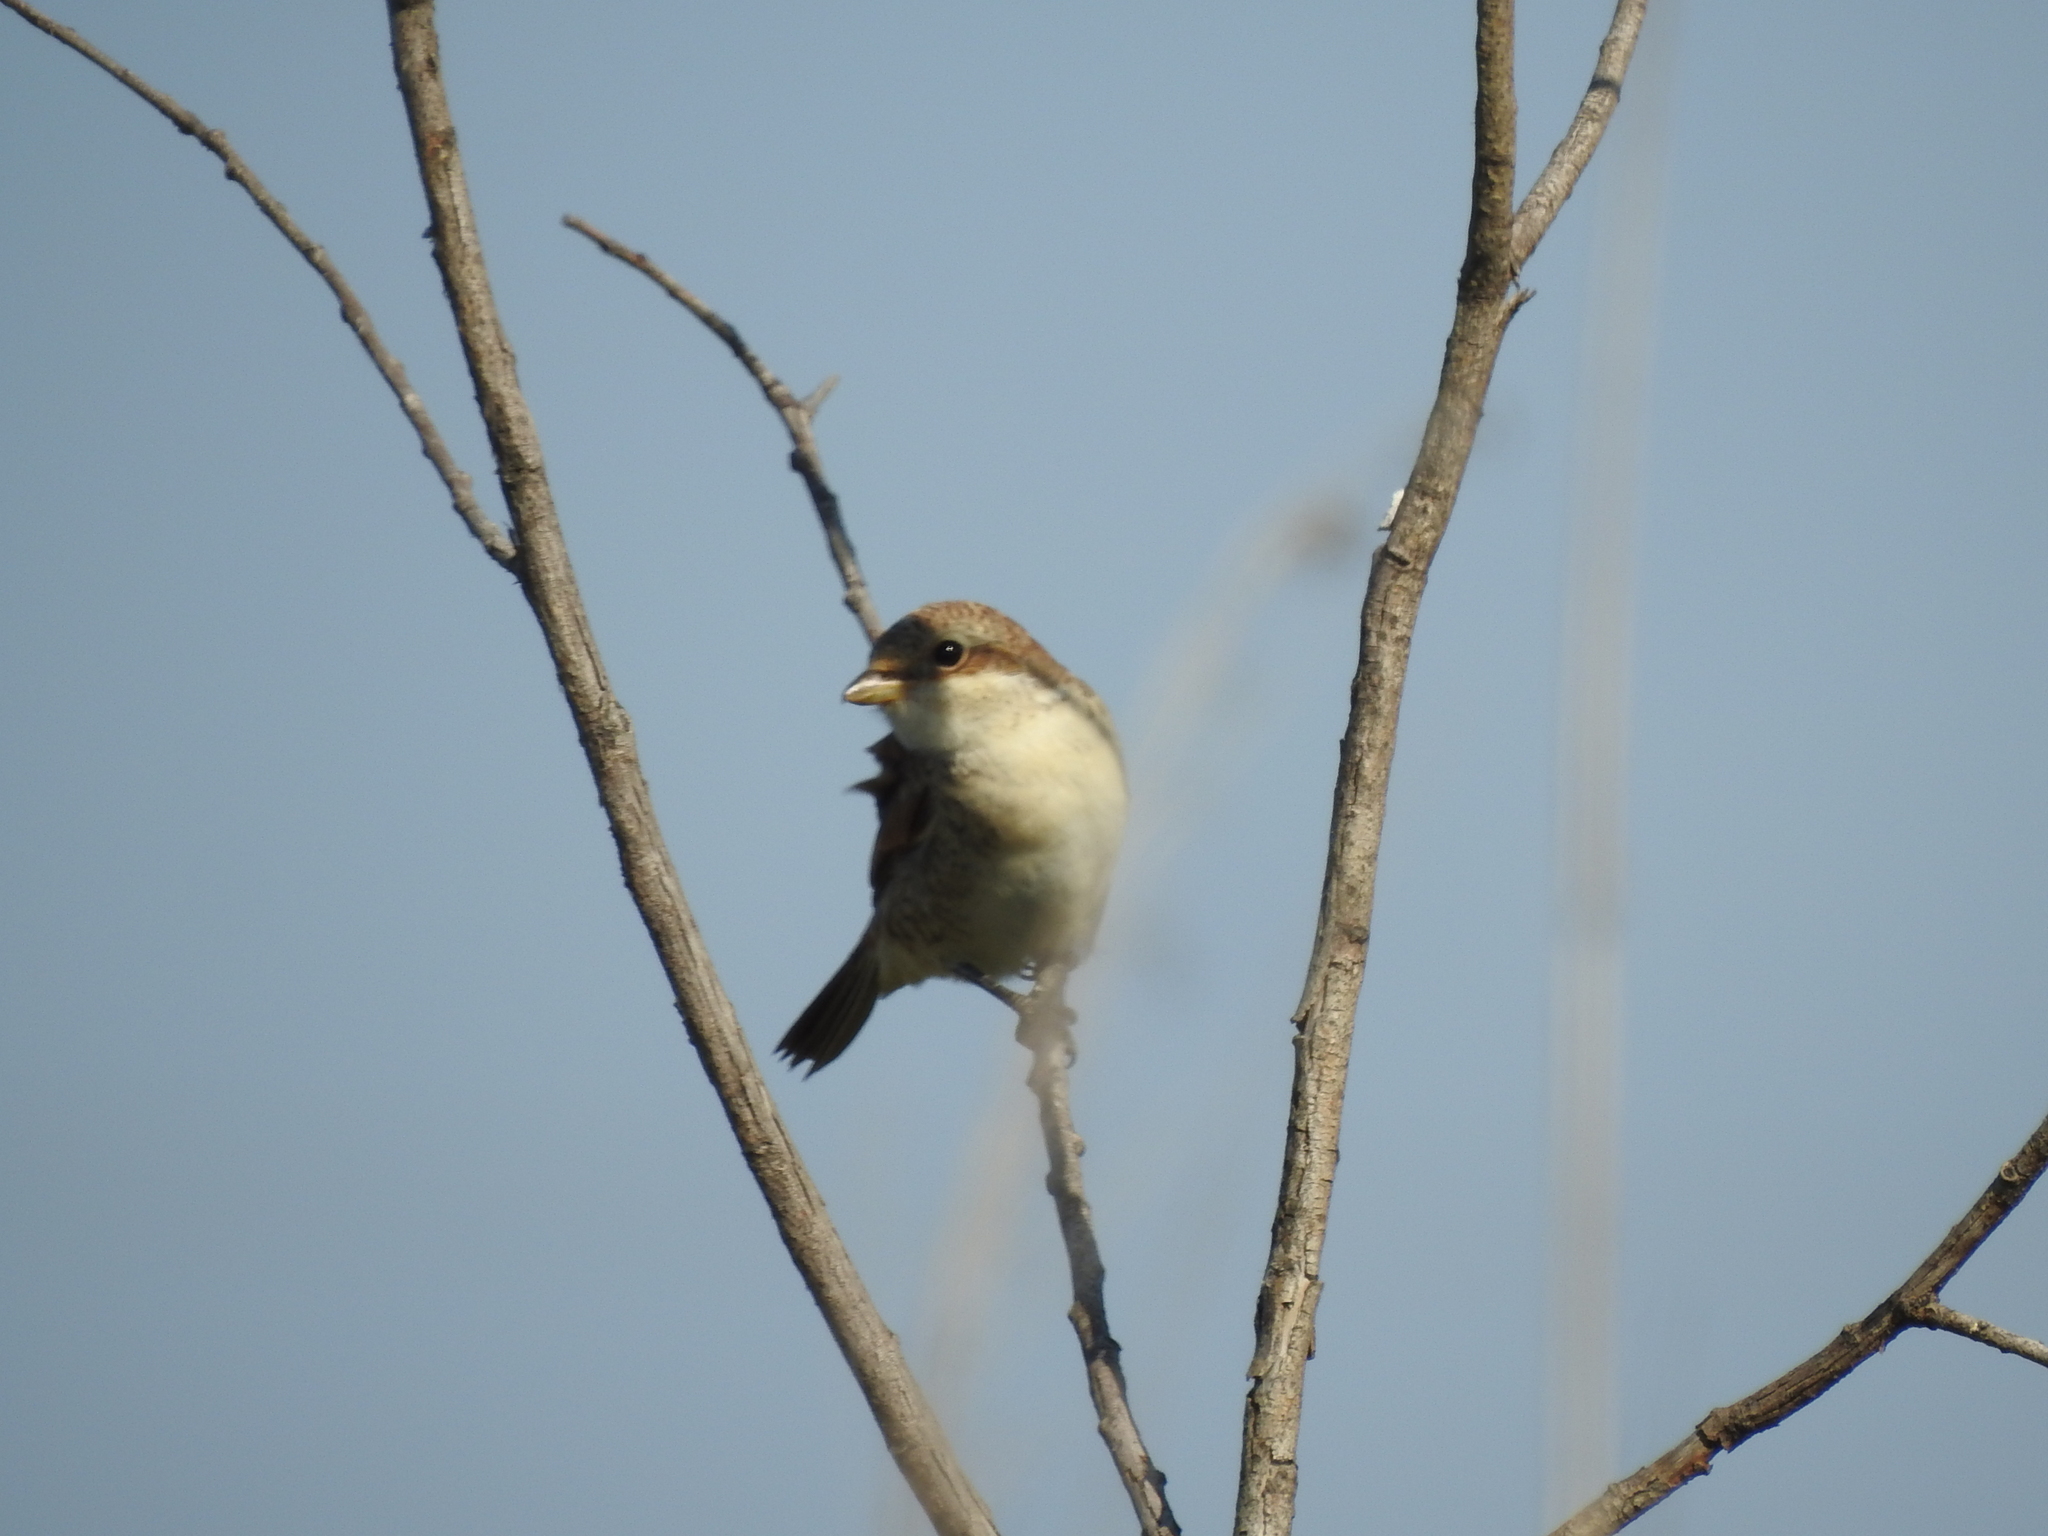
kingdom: Animalia
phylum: Chordata
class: Aves
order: Passeriformes
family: Laniidae
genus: Lanius
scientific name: Lanius collurio
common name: Red-backed shrike
